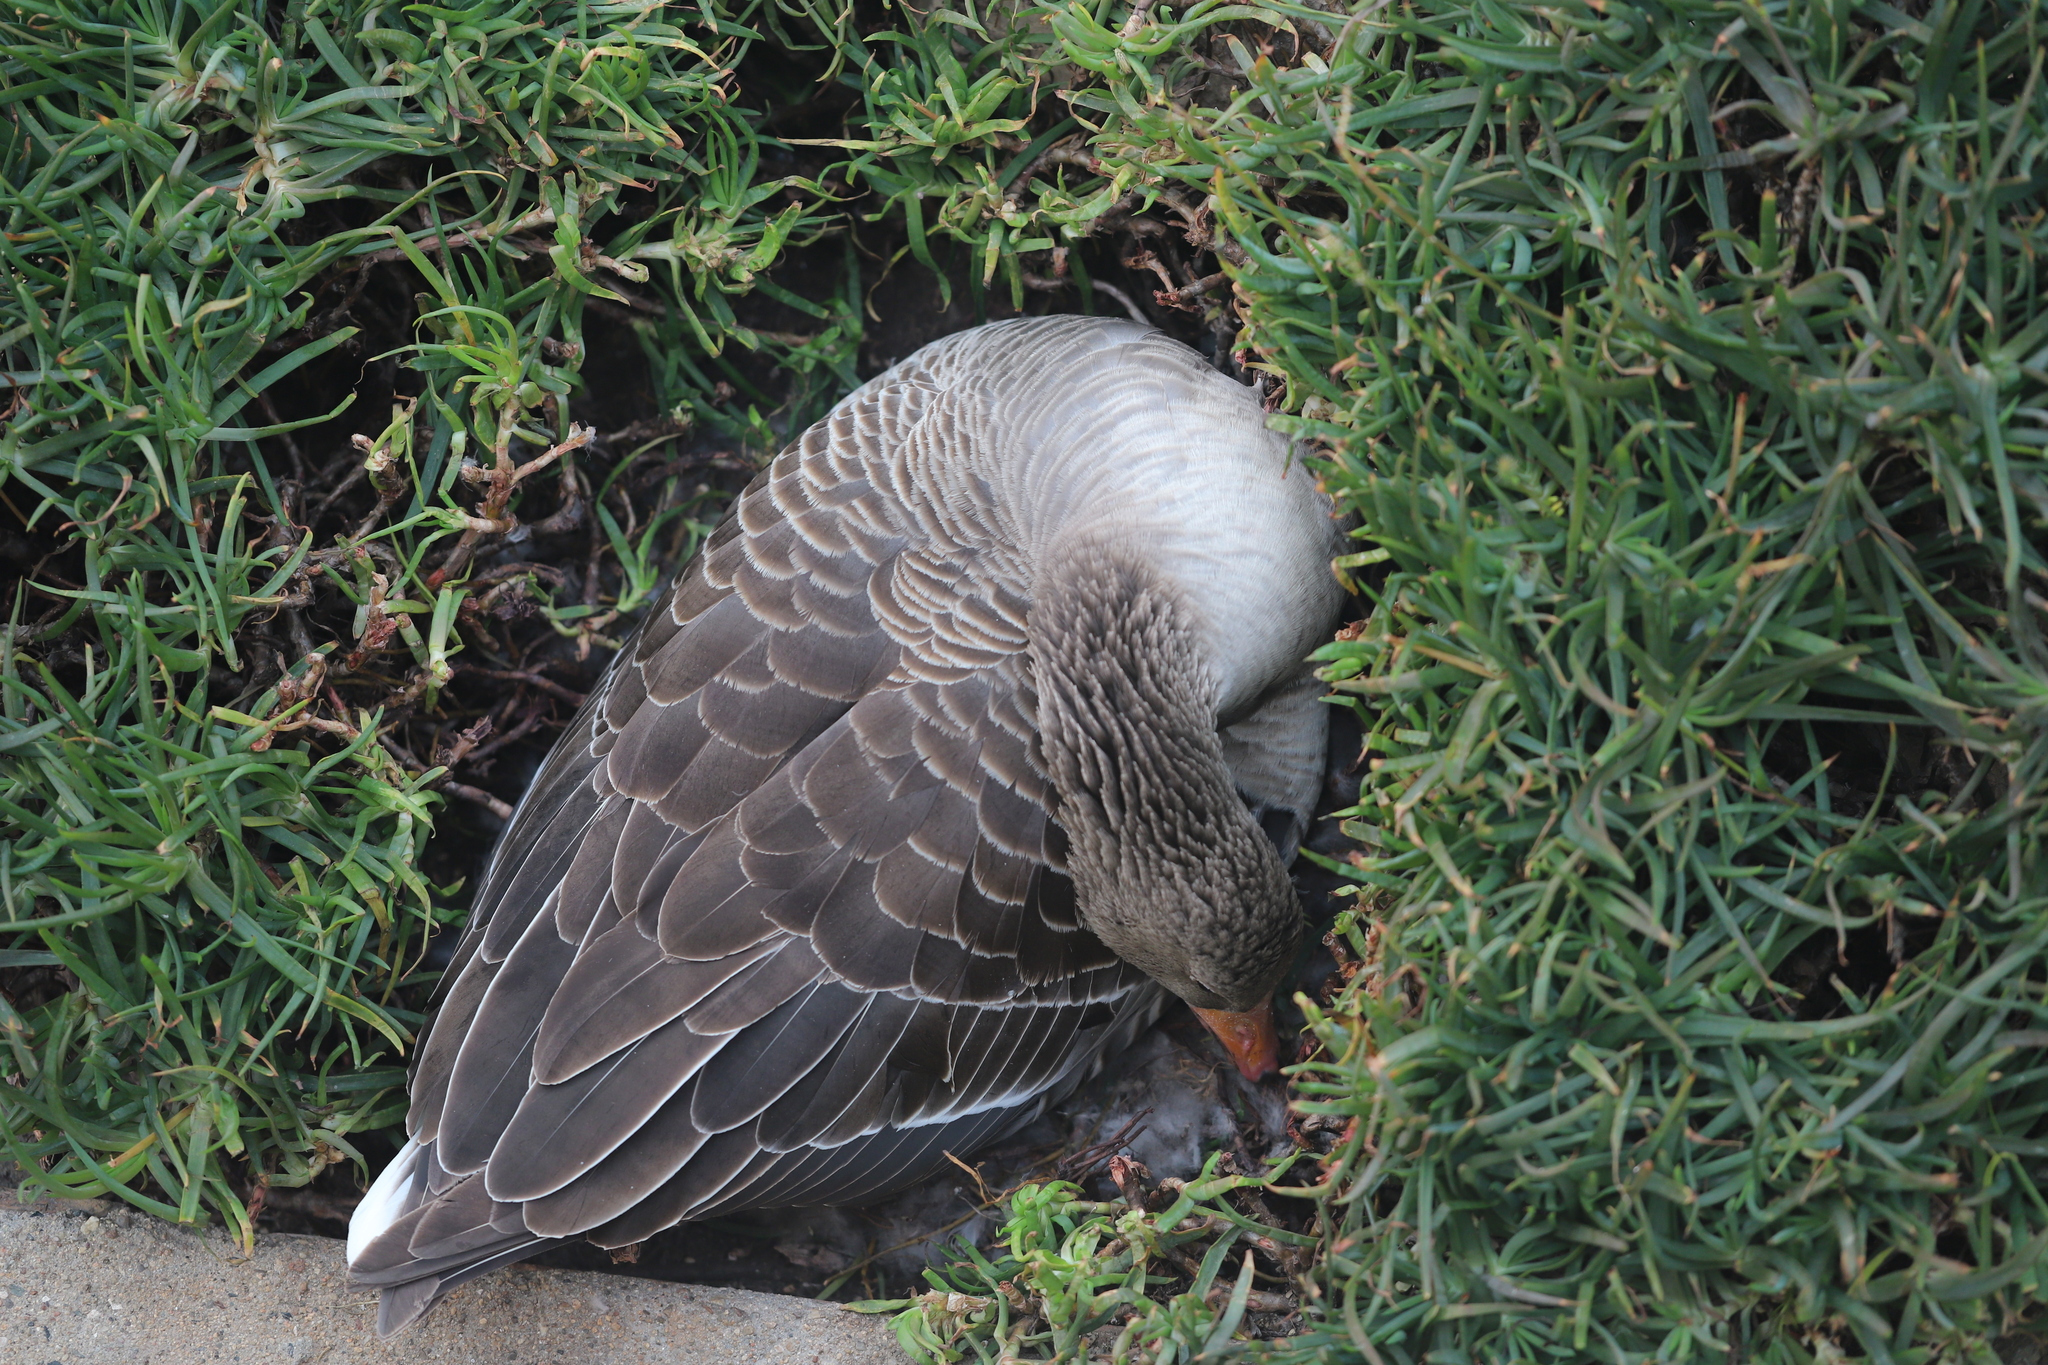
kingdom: Animalia
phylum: Chordata
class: Aves
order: Anseriformes
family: Anatidae
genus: Anser
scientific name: Anser anser
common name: Greylag goose
